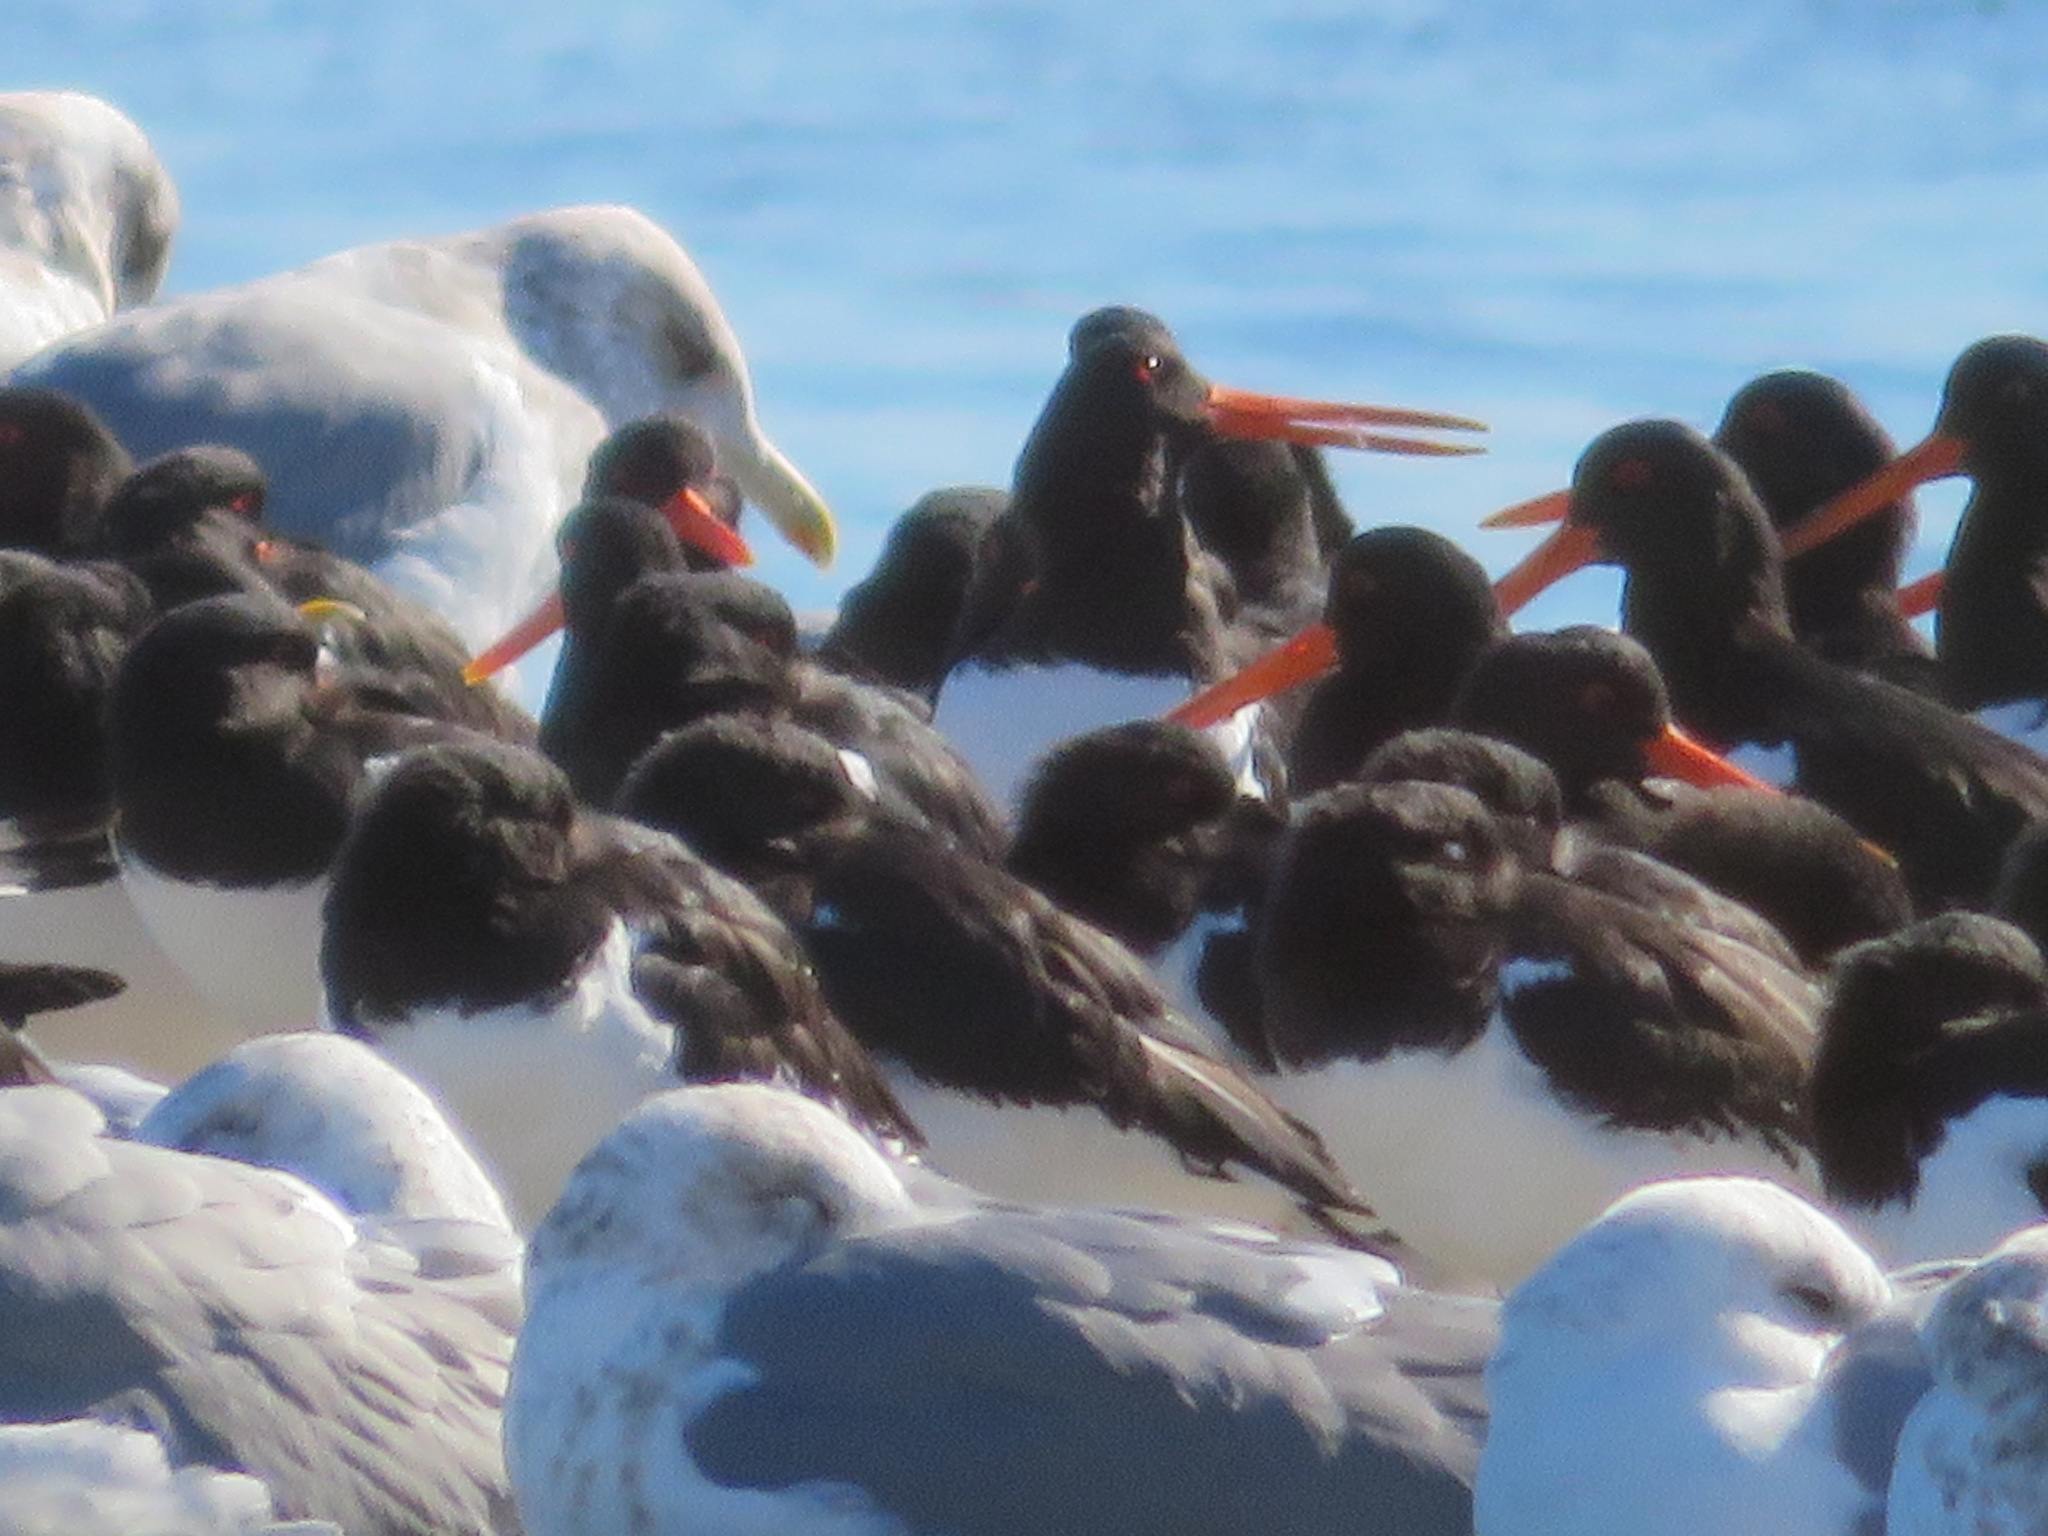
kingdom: Animalia
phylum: Chordata
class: Aves
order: Charadriiformes
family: Haematopodidae
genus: Haematopus
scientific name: Haematopus ostralegus
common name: Eurasian oystercatcher
